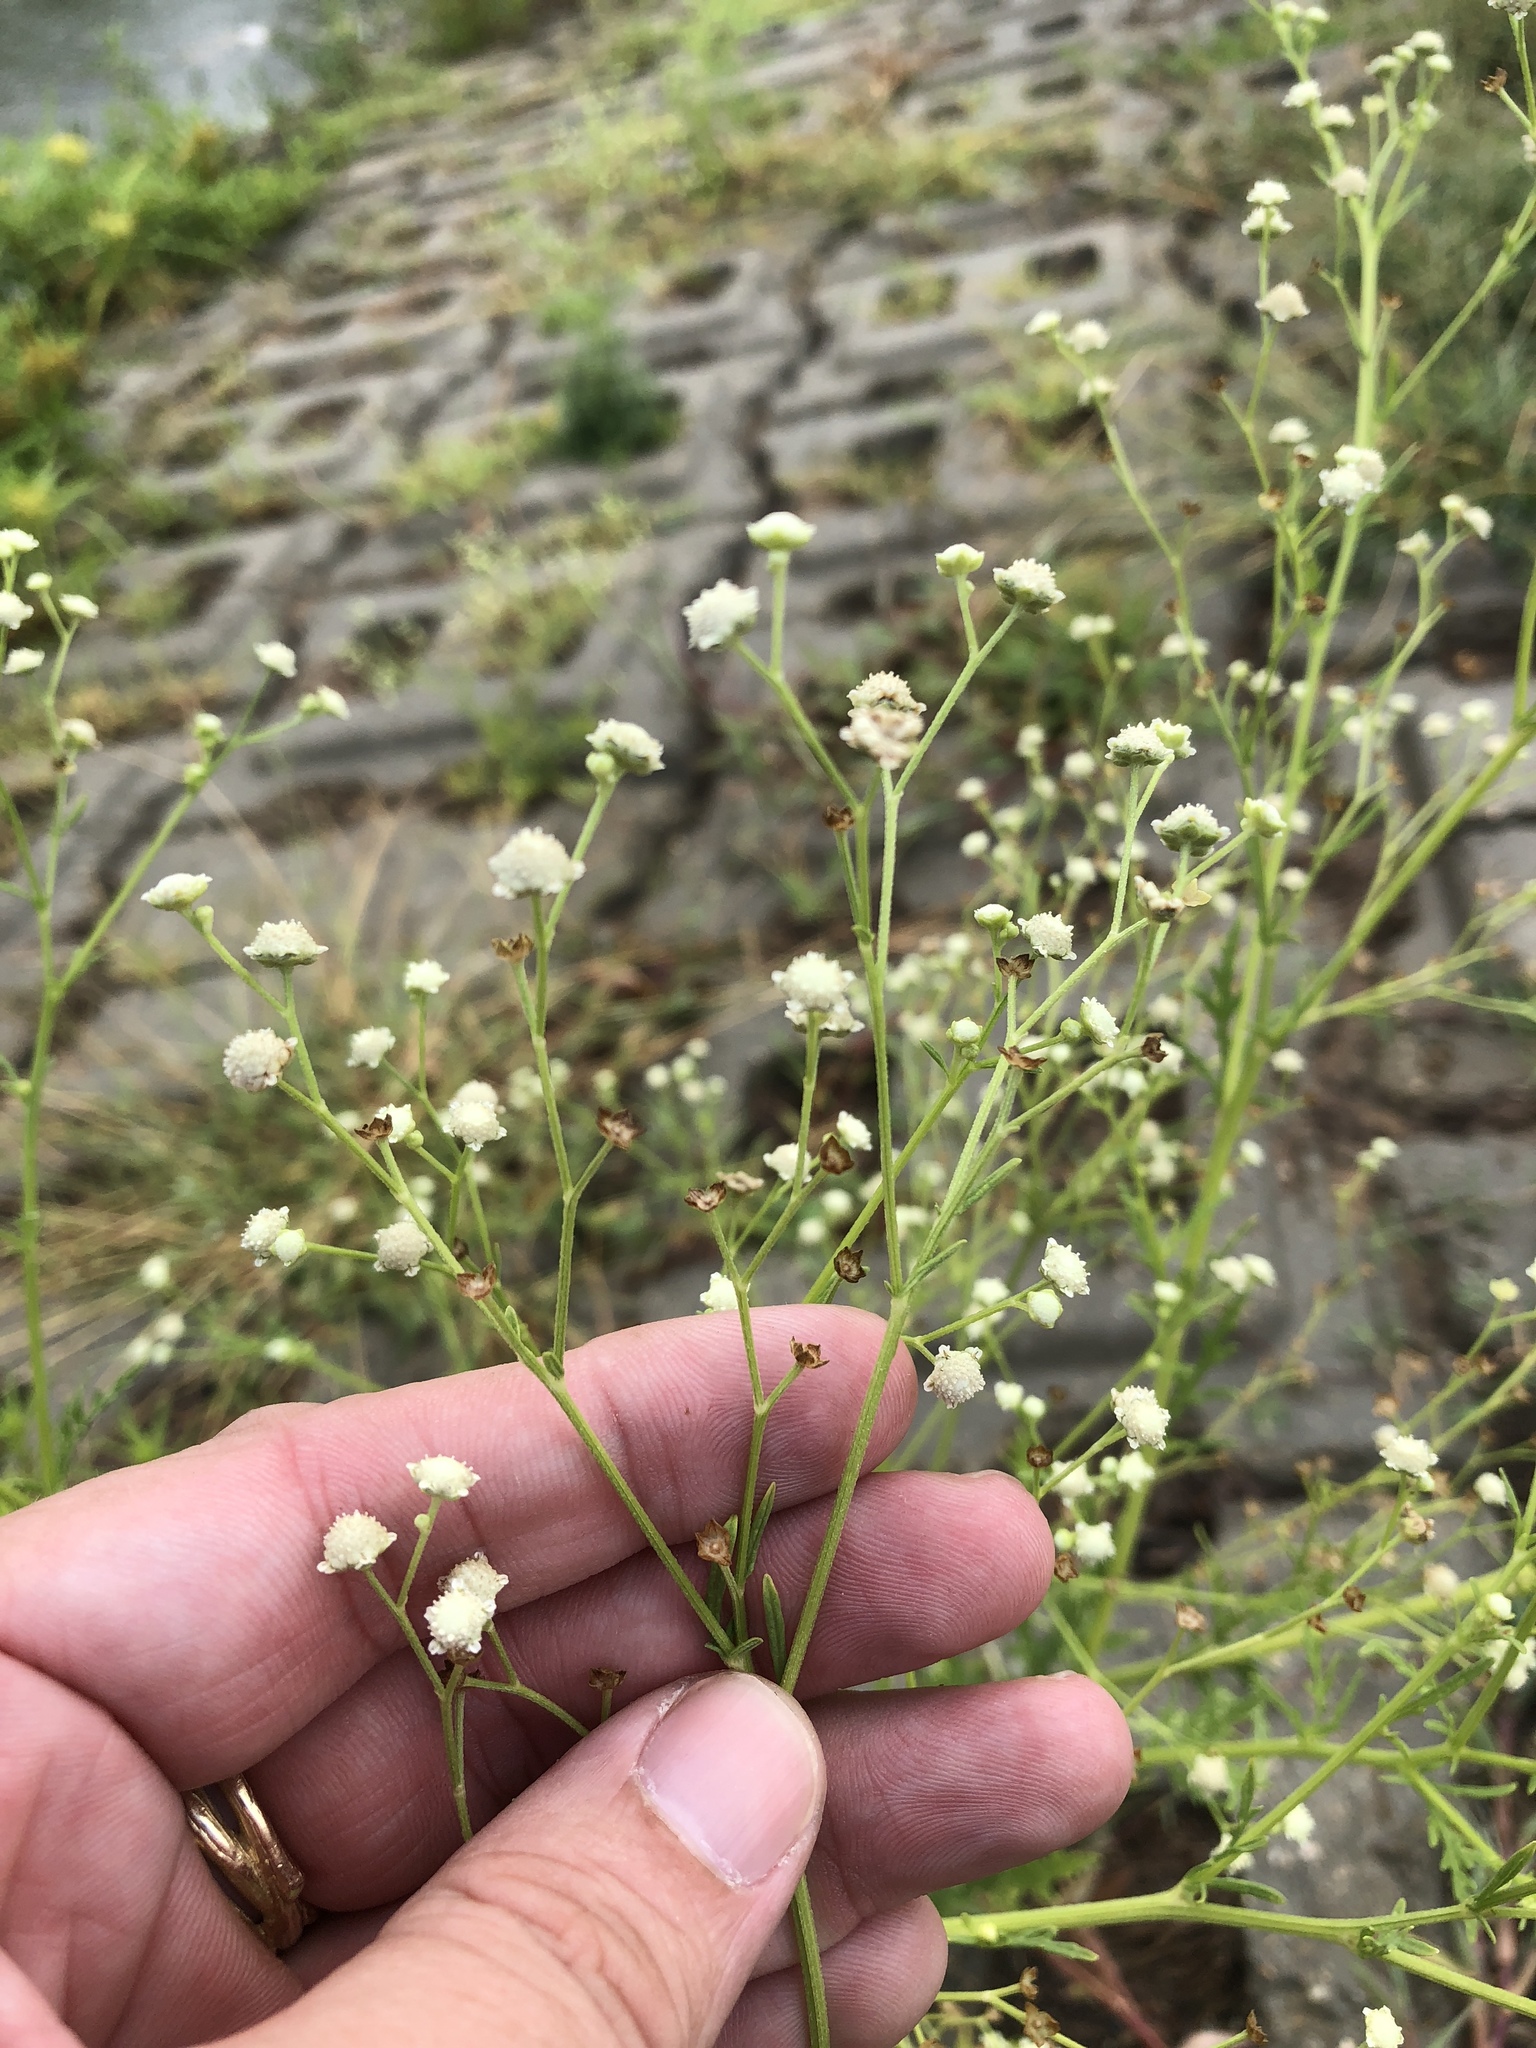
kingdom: Plantae
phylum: Tracheophyta
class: Magnoliopsida
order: Asterales
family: Asteraceae
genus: Parthenium
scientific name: Parthenium hysterophorus
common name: Santa maria feverfew
